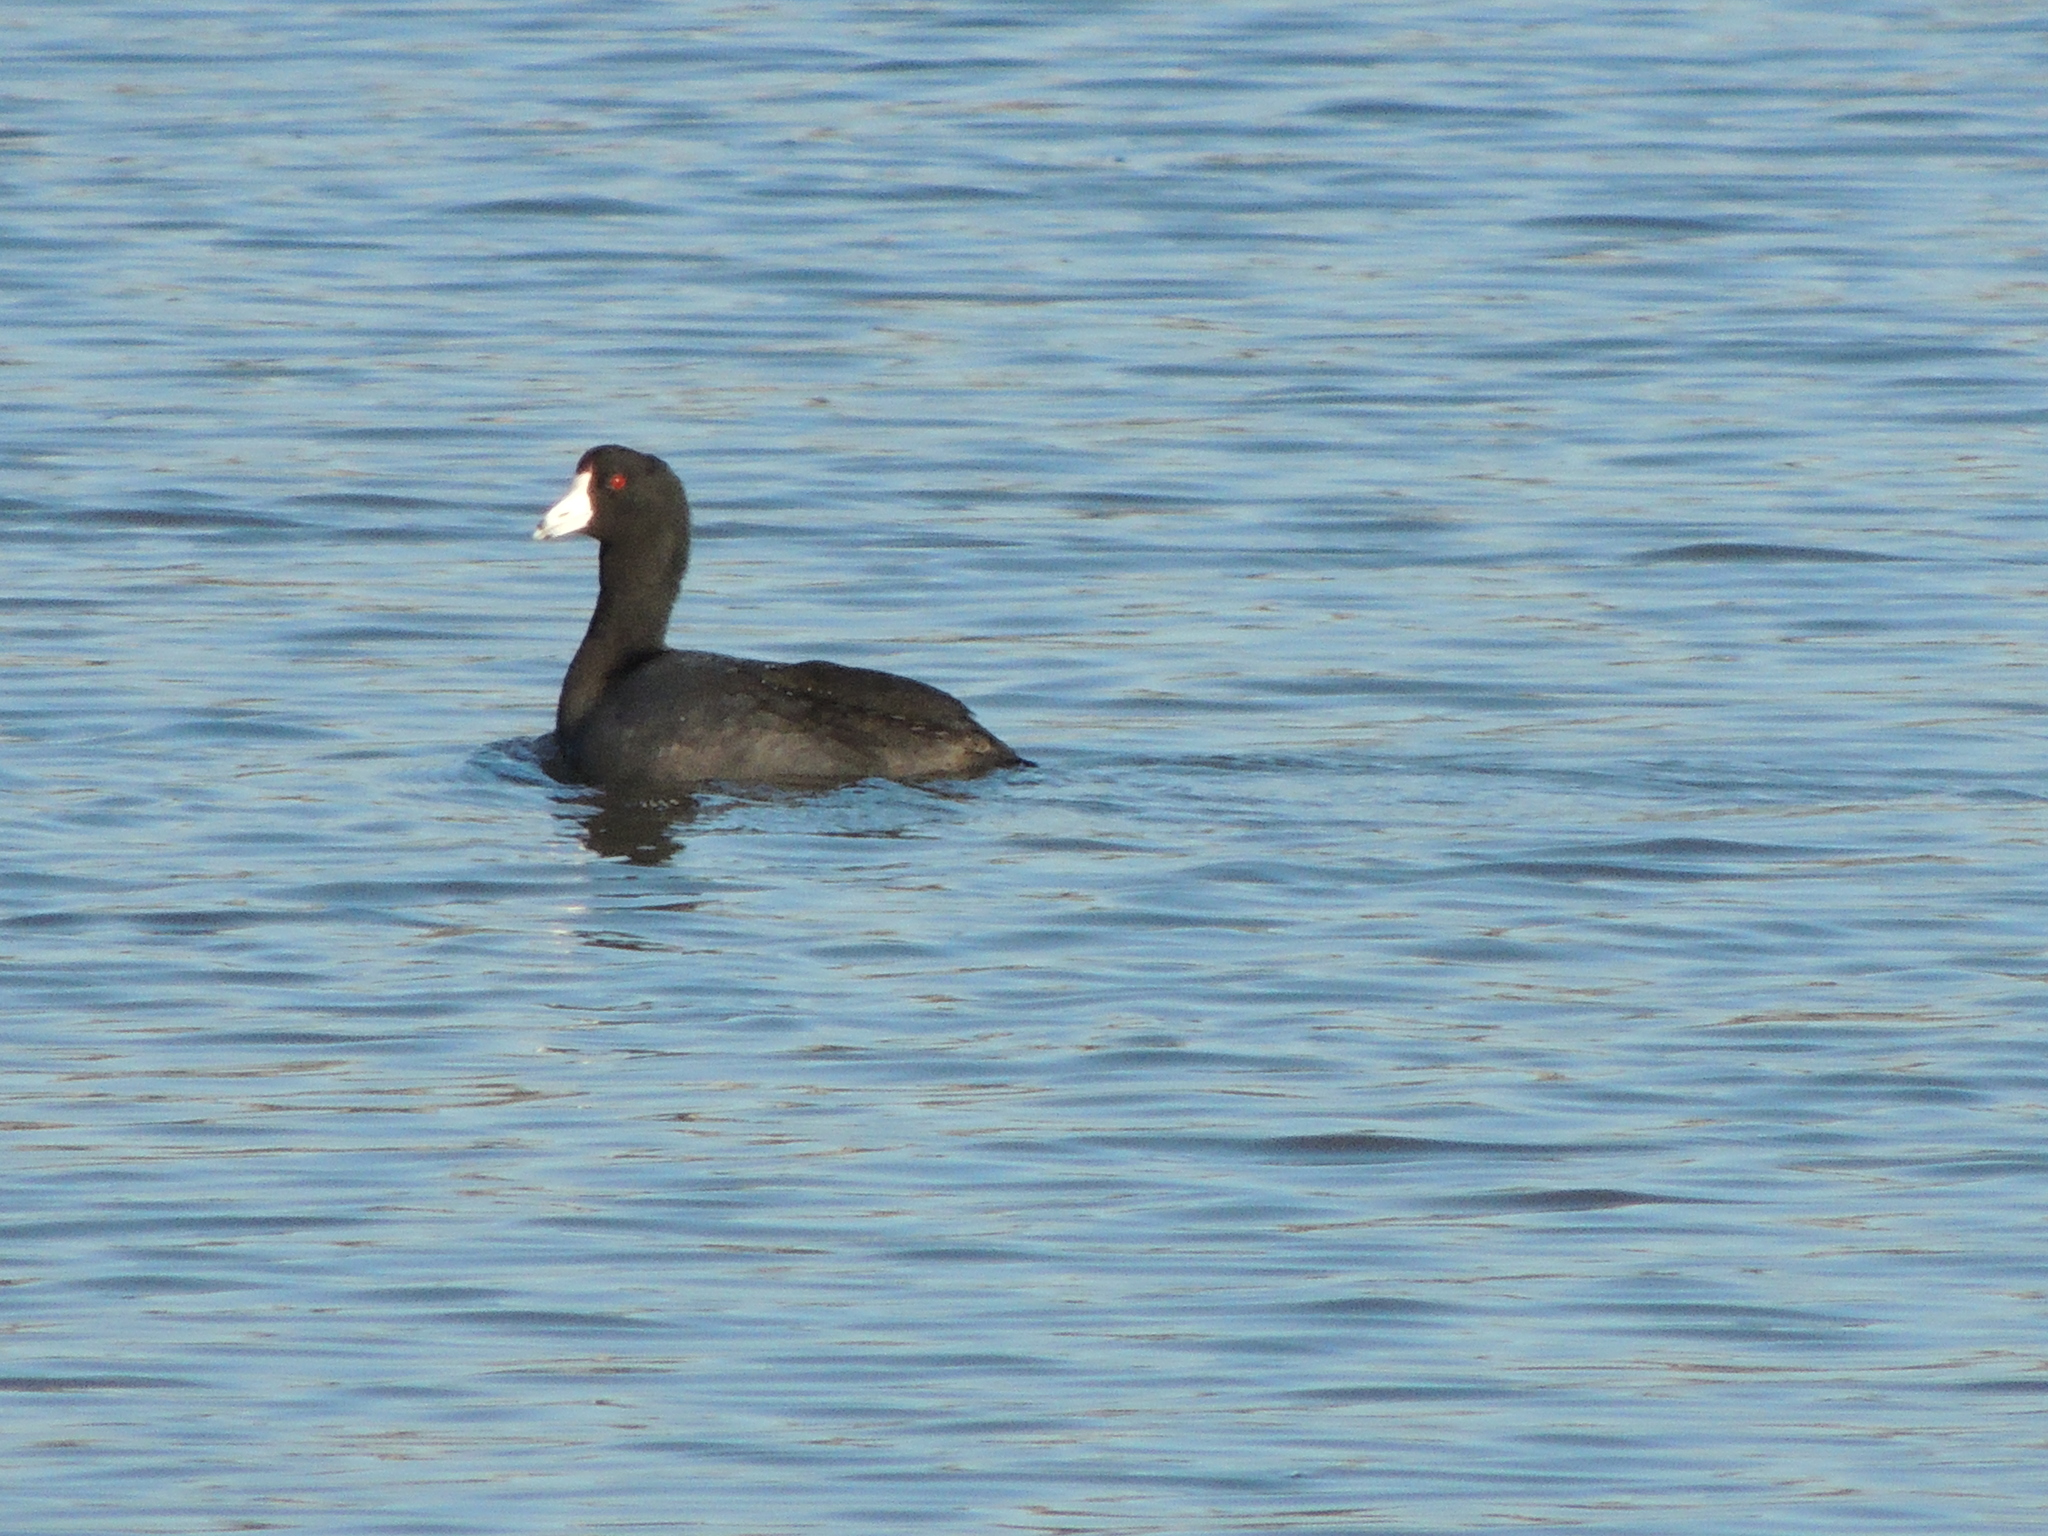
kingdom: Animalia
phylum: Chordata
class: Aves
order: Gruiformes
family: Rallidae
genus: Fulica
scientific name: Fulica americana
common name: American coot
